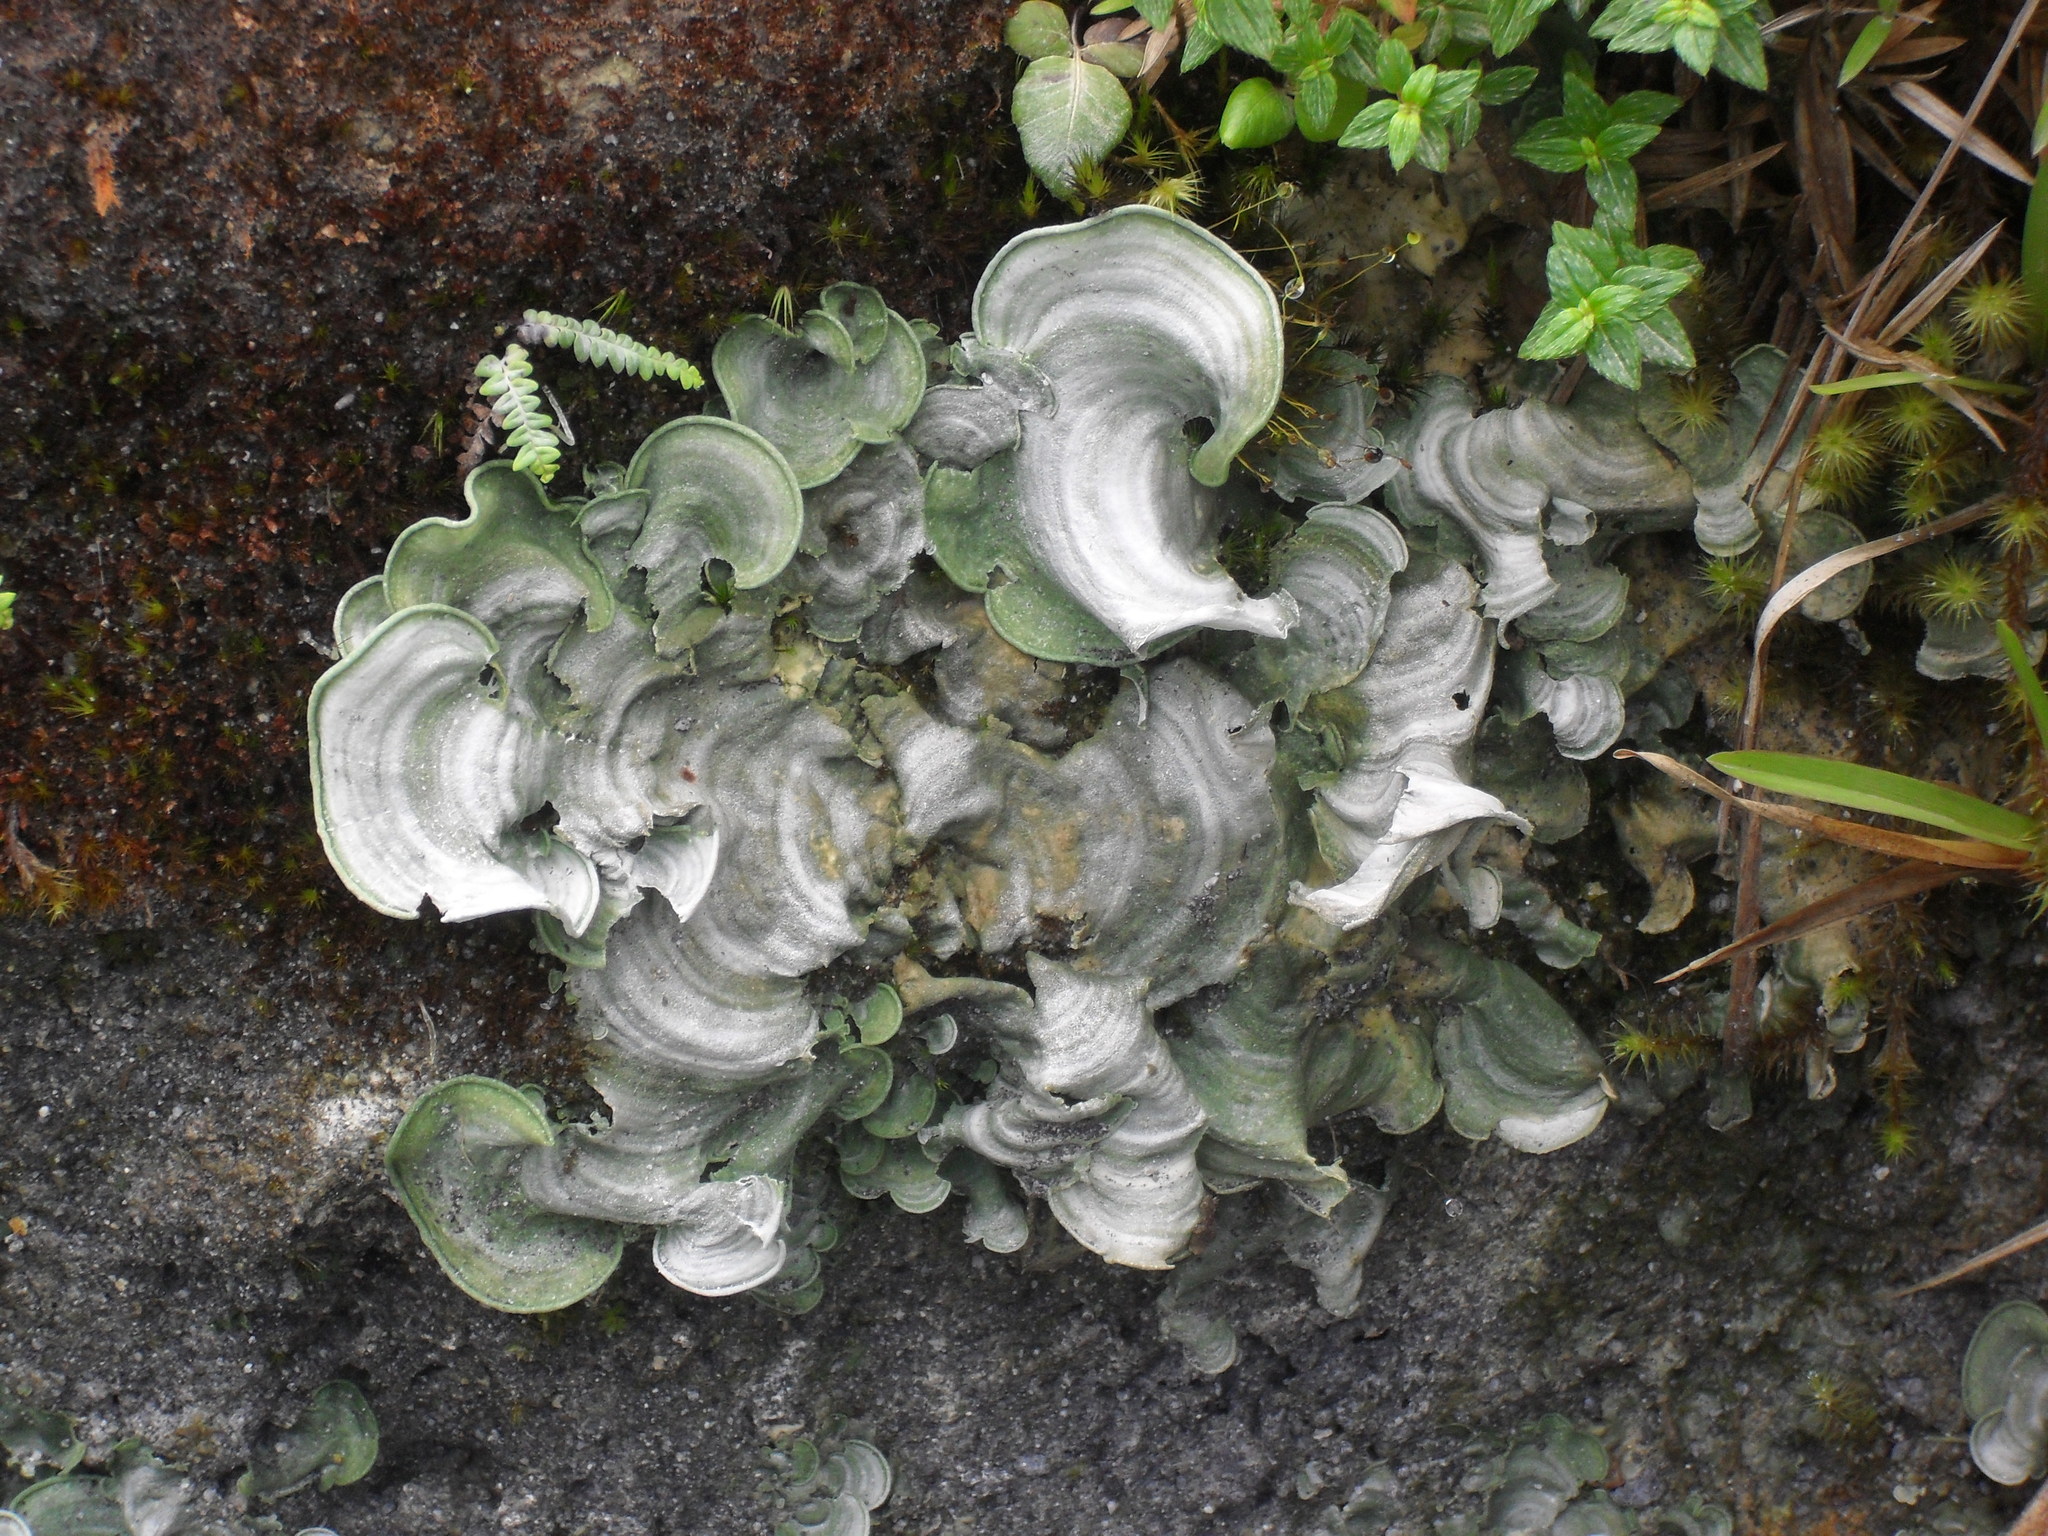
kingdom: Fungi
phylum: Basidiomycota
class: Agaricomycetes
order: Agaricales
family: Hygrophoraceae
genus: Cora
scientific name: Cora glabrata
